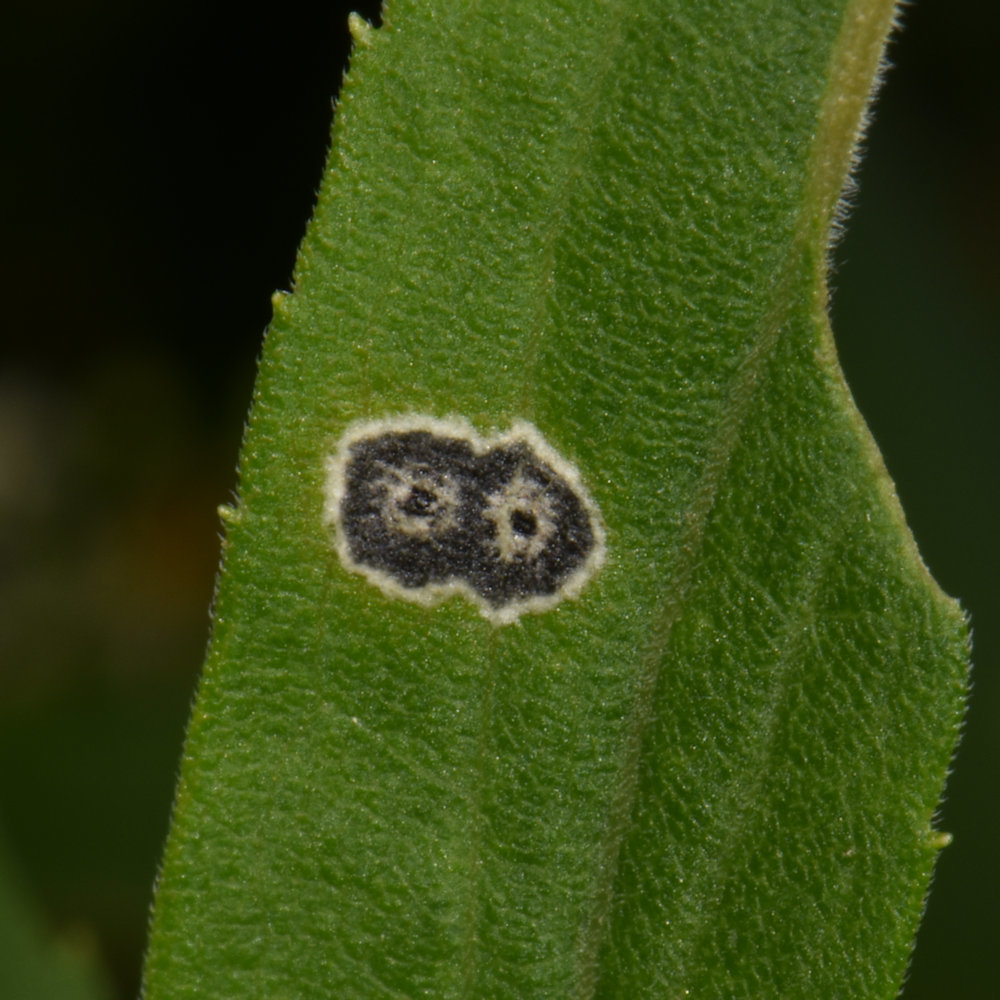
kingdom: Animalia
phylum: Arthropoda
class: Insecta
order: Diptera
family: Cecidomyiidae
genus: Asteromyia
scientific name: Asteromyia carbonifera
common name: Carbonifera goldenrod gall midge
